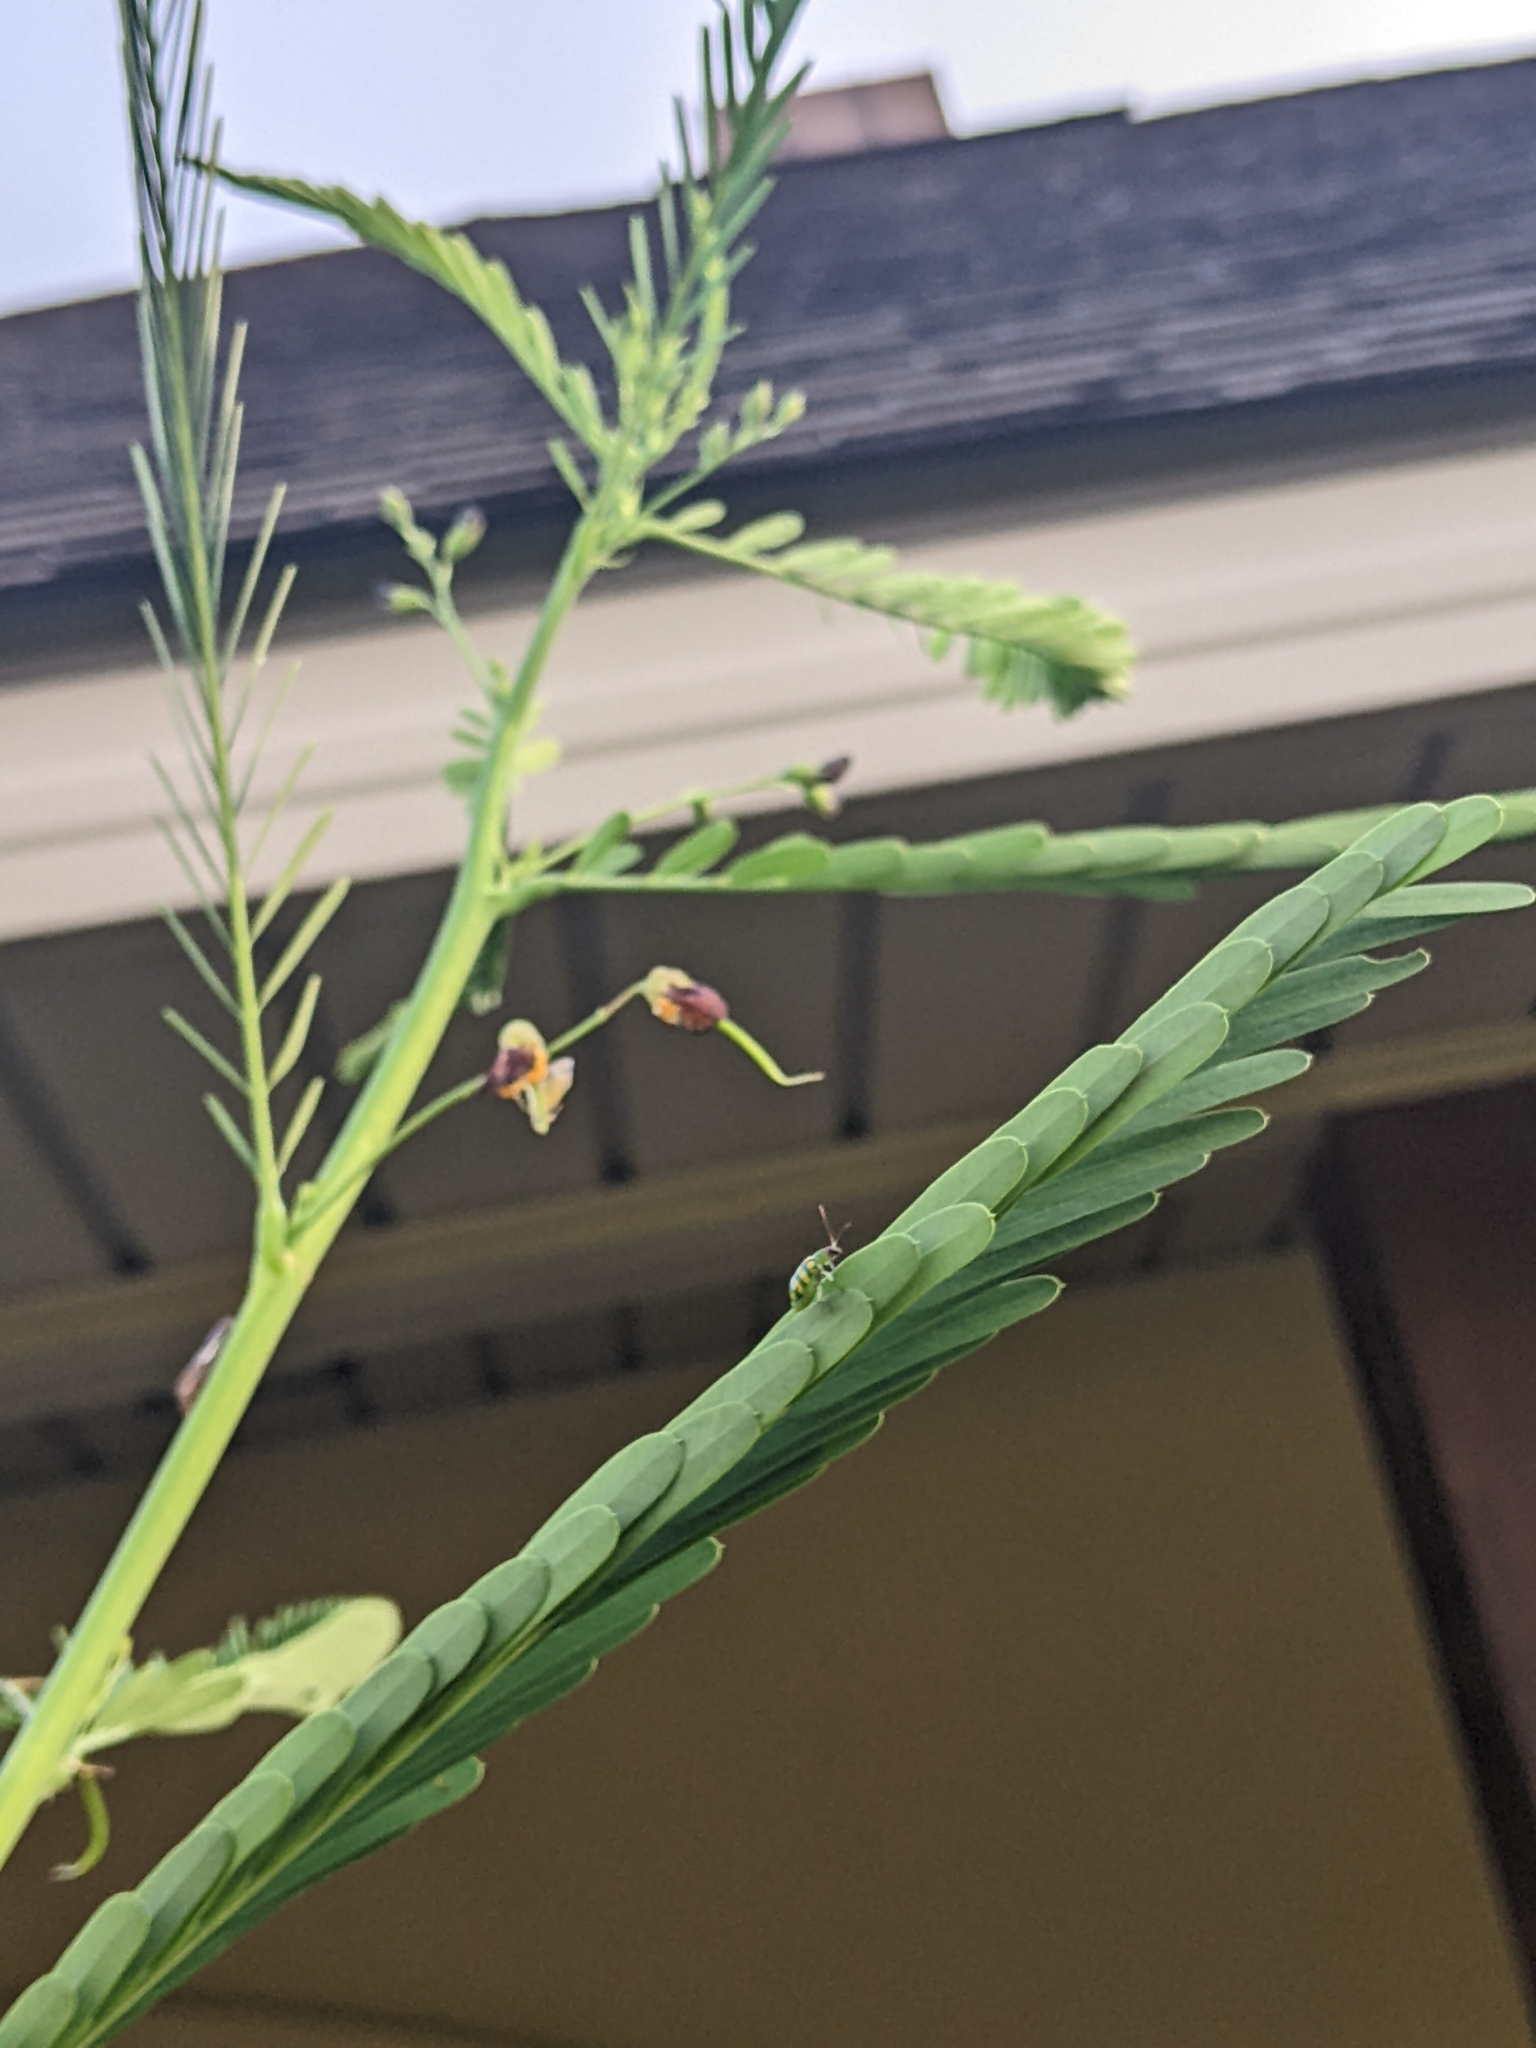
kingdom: Animalia
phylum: Arthropoda
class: Insecta
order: Coleoptera
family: Chrysomelidae
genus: Diabrotica
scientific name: Diabrotica balteata
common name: Leaf beetle
